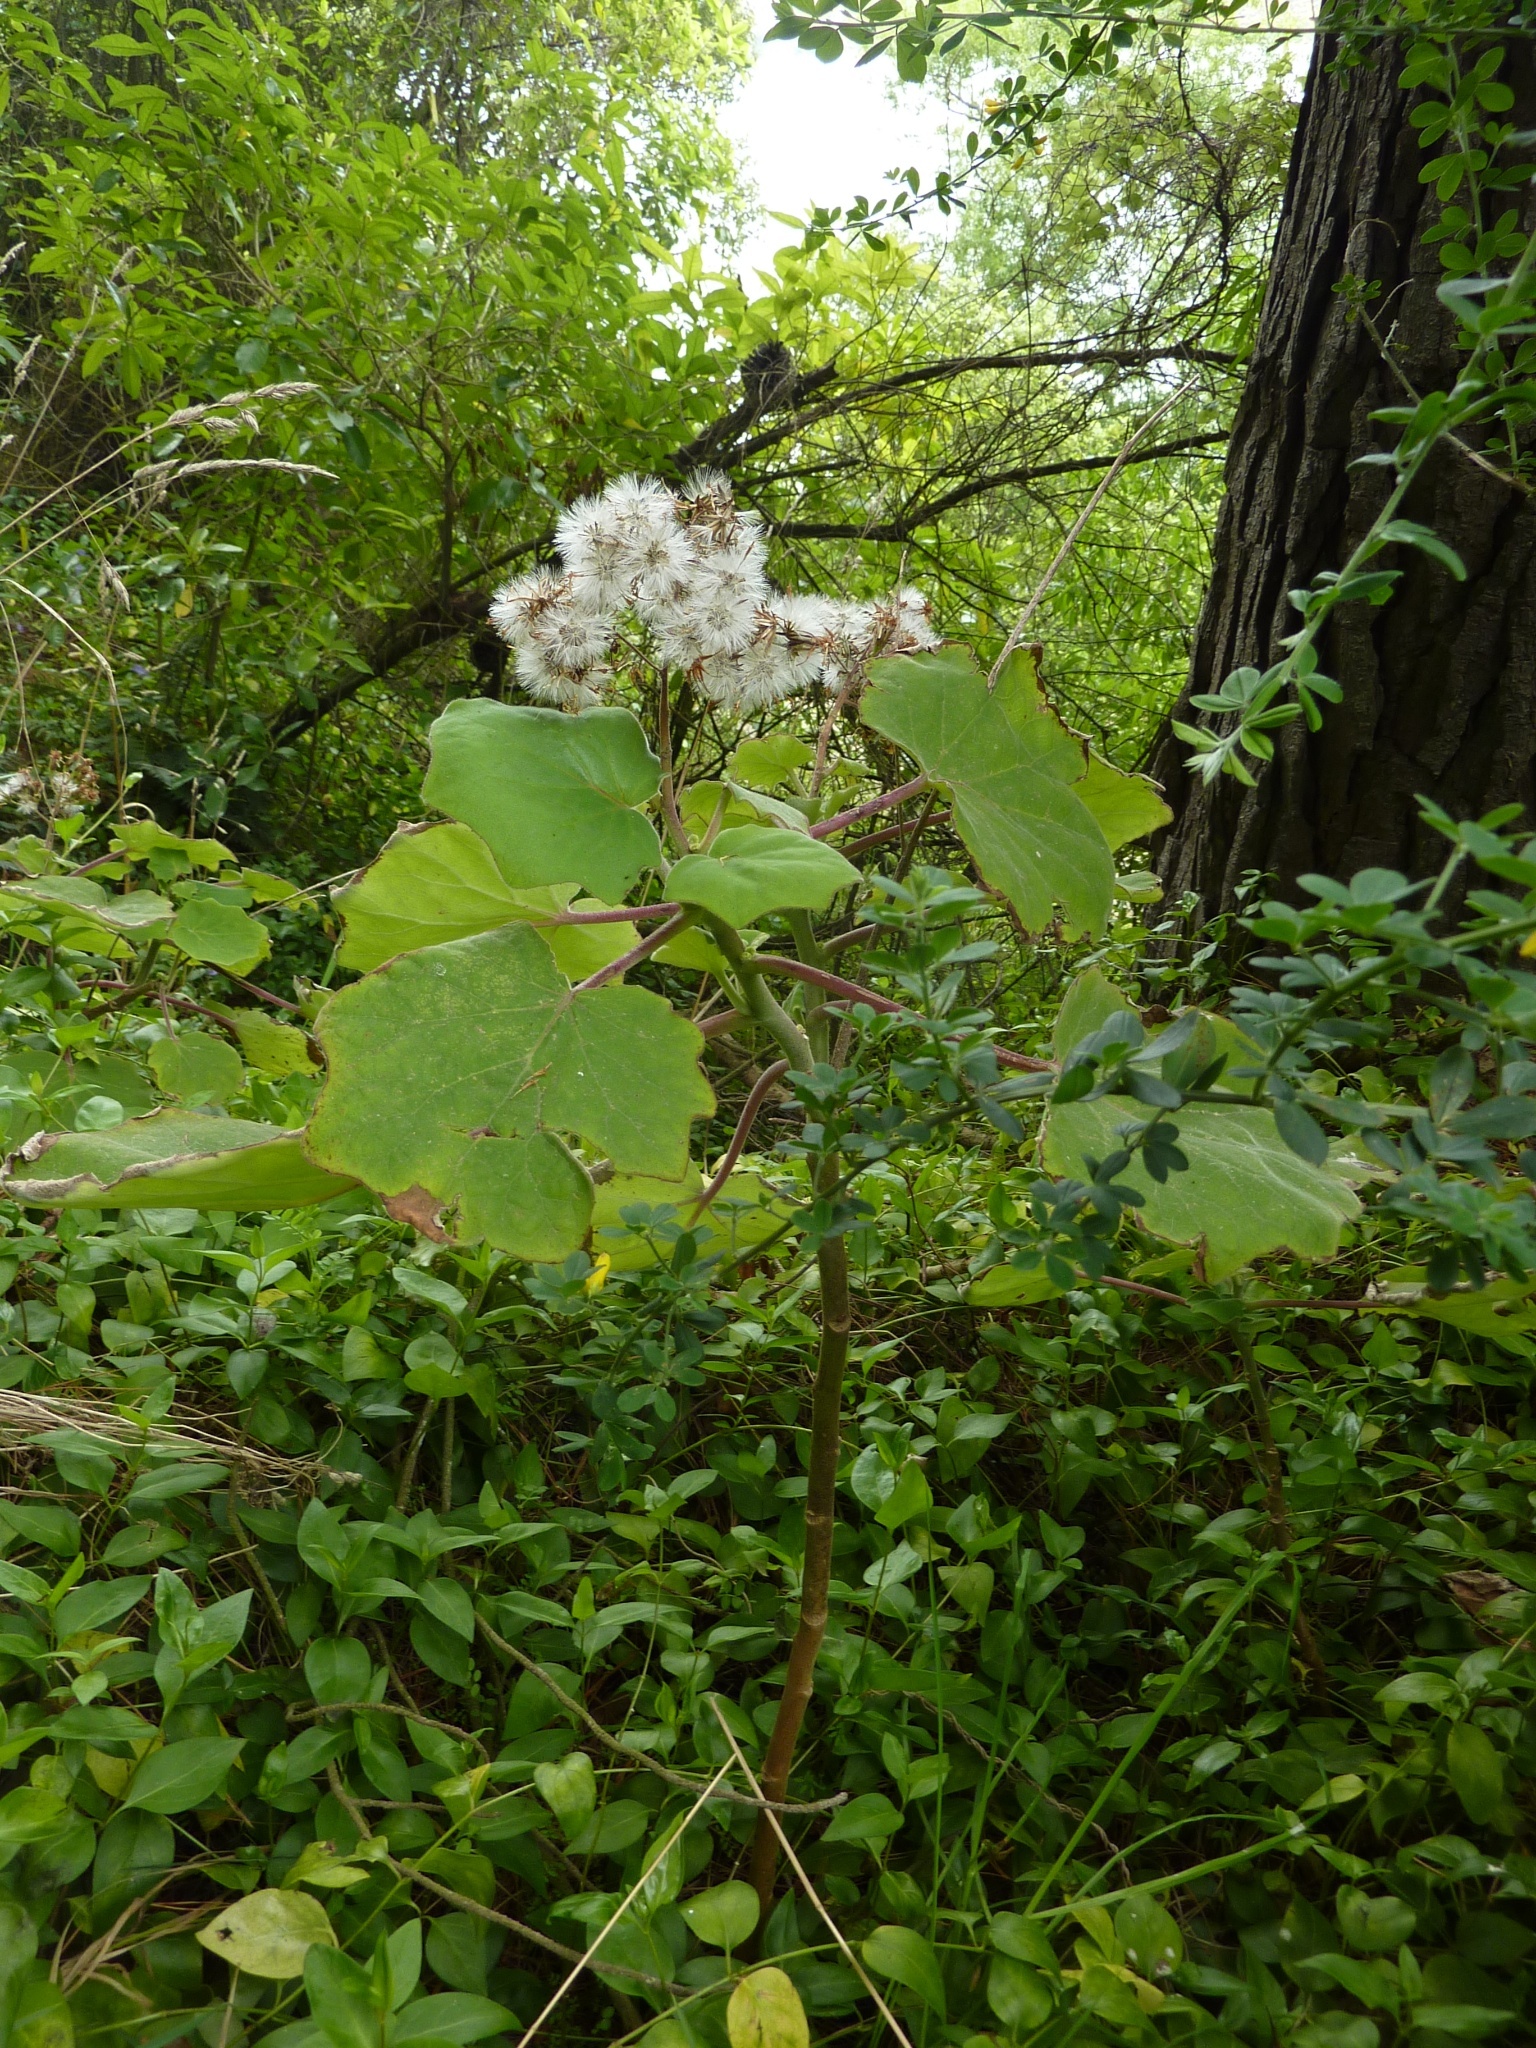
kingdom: Plantae
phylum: Tracheophyta
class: Magnoliopsida
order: Asterales
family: Asteraceae
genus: Roldana
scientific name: Roldana petasitis
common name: California-geranium
